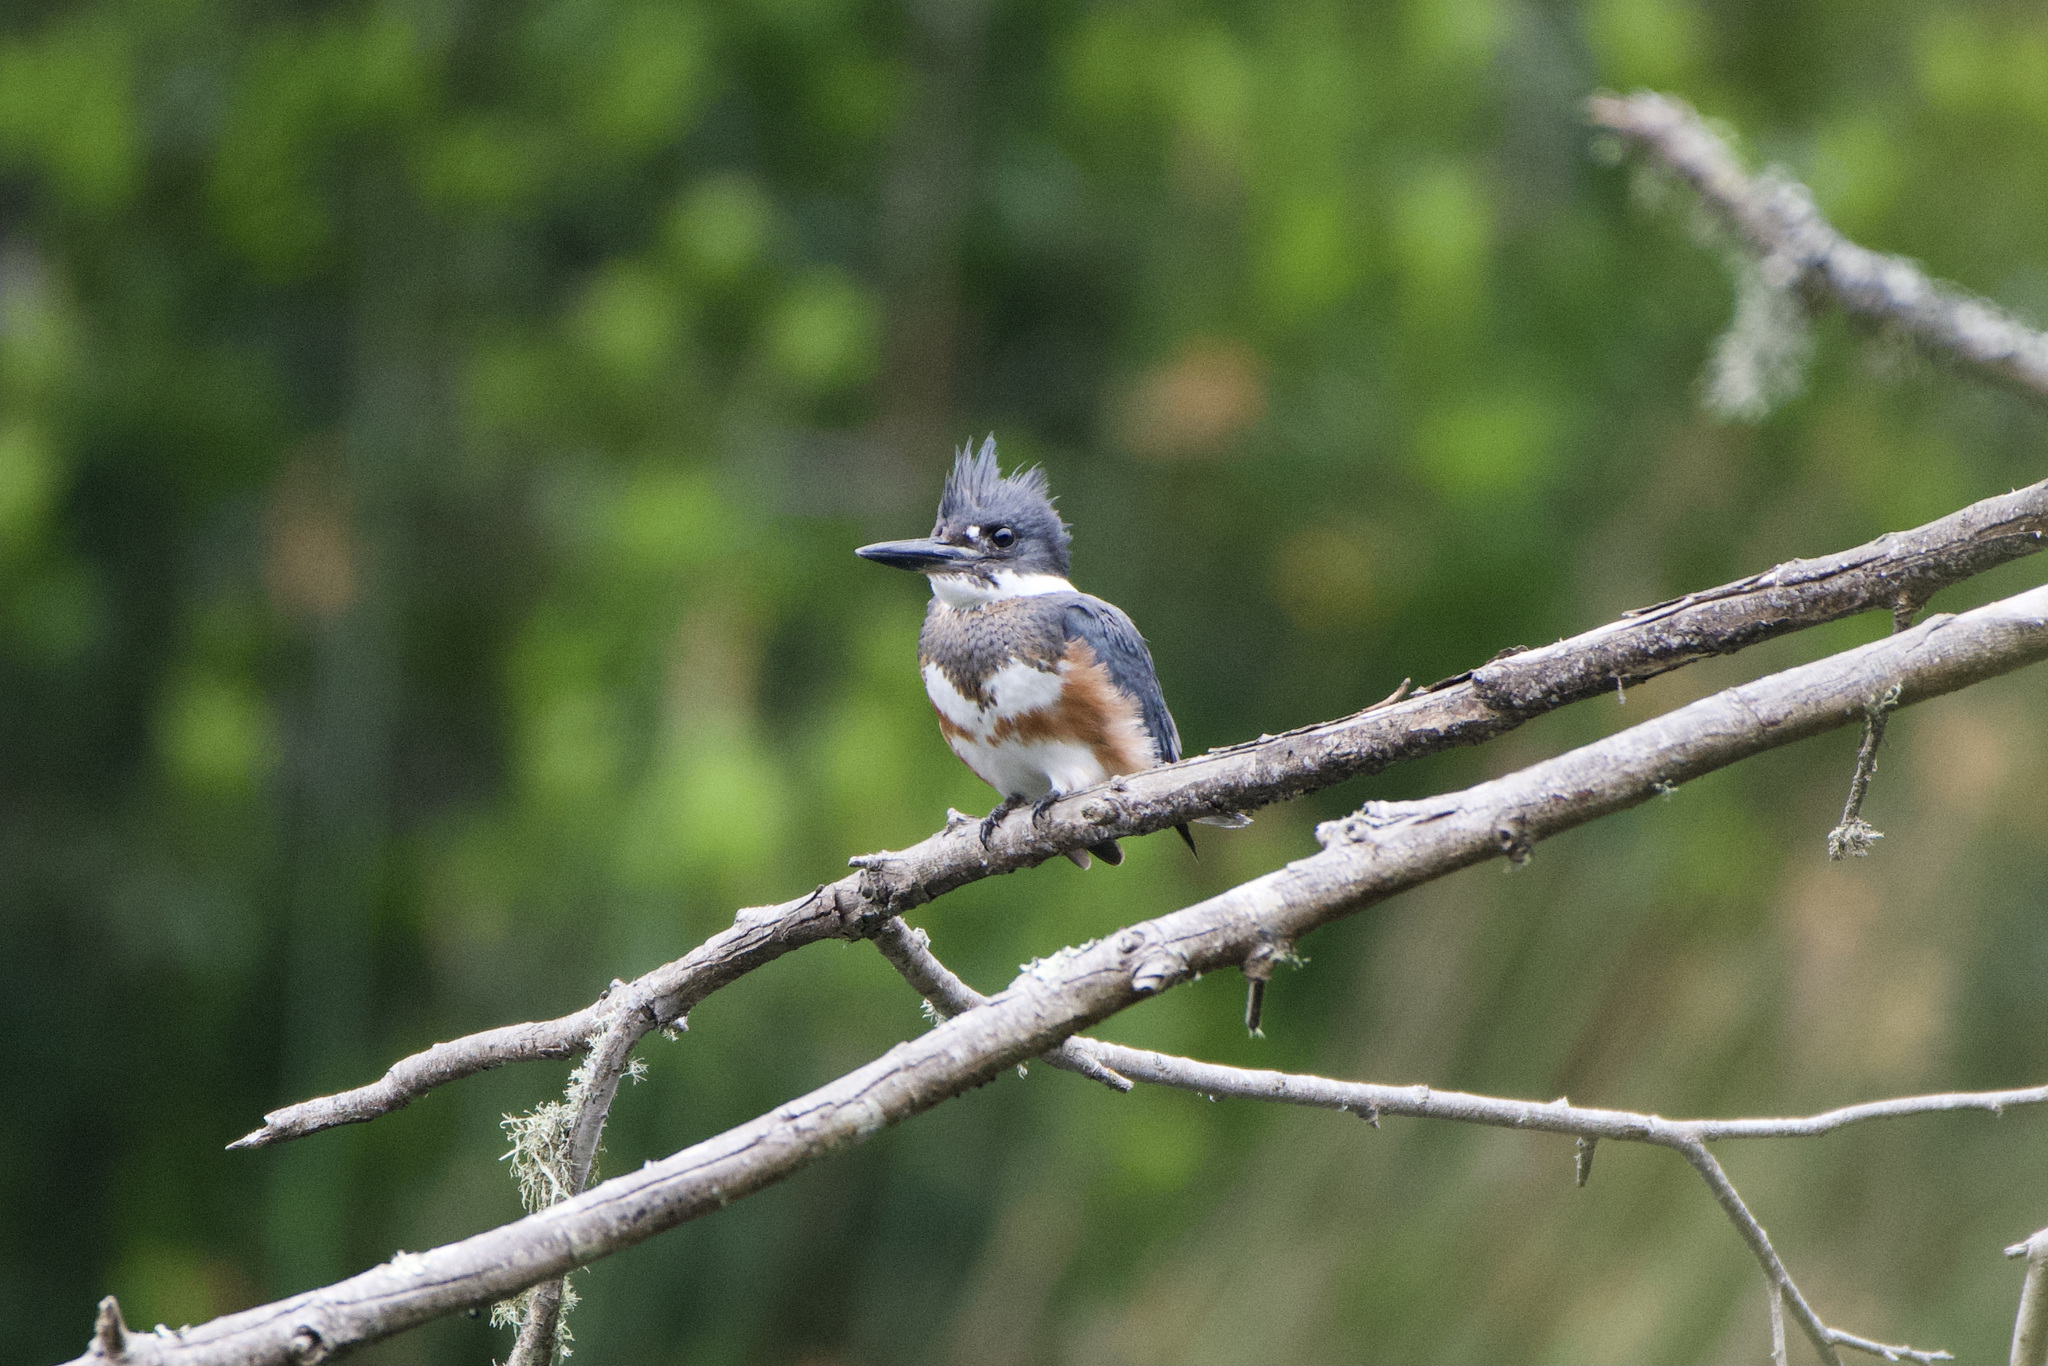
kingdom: Animalia
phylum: Chordata
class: Aves
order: Coraciiformes
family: Alcedinidae
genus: Megaceryle
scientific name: Megaceryle alcyon
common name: Belted kingfisher
